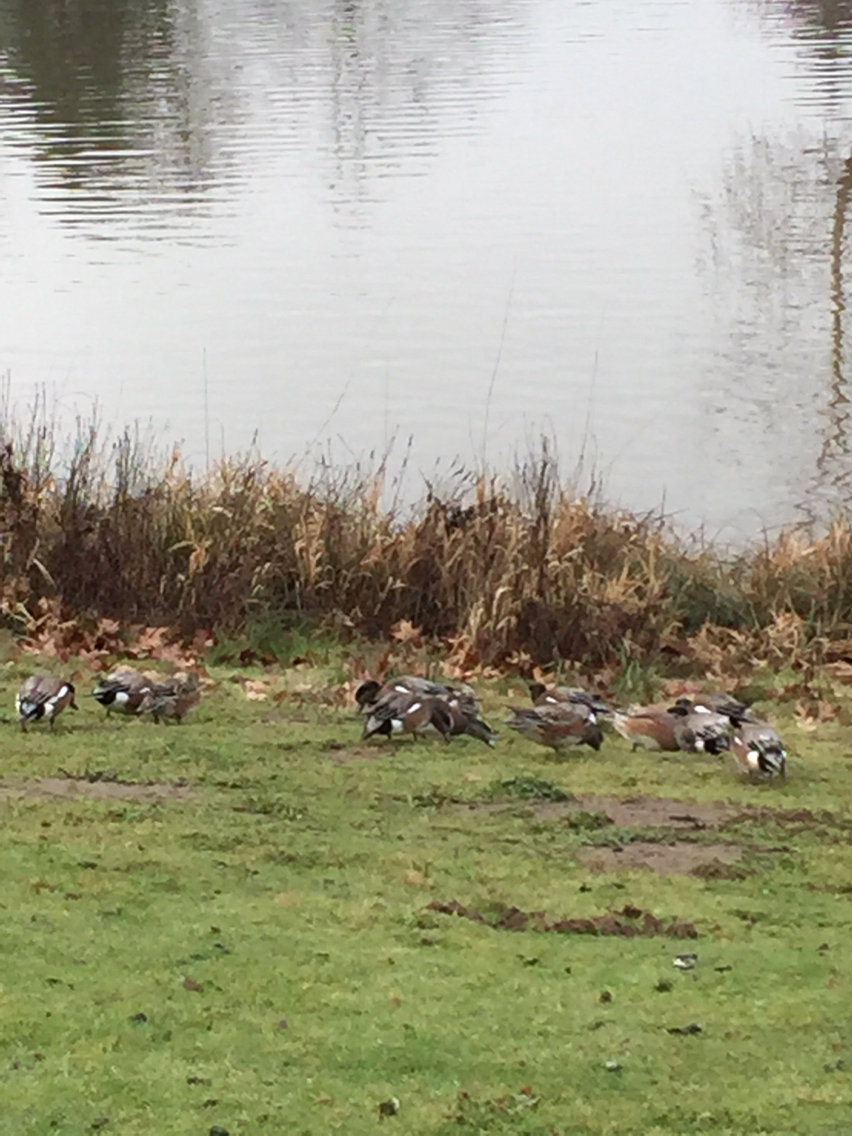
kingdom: Animalia
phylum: Chordata
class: Aves
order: Anseriformes
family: Anatidae
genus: Mareca
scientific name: Mareca americana
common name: American wigeon
